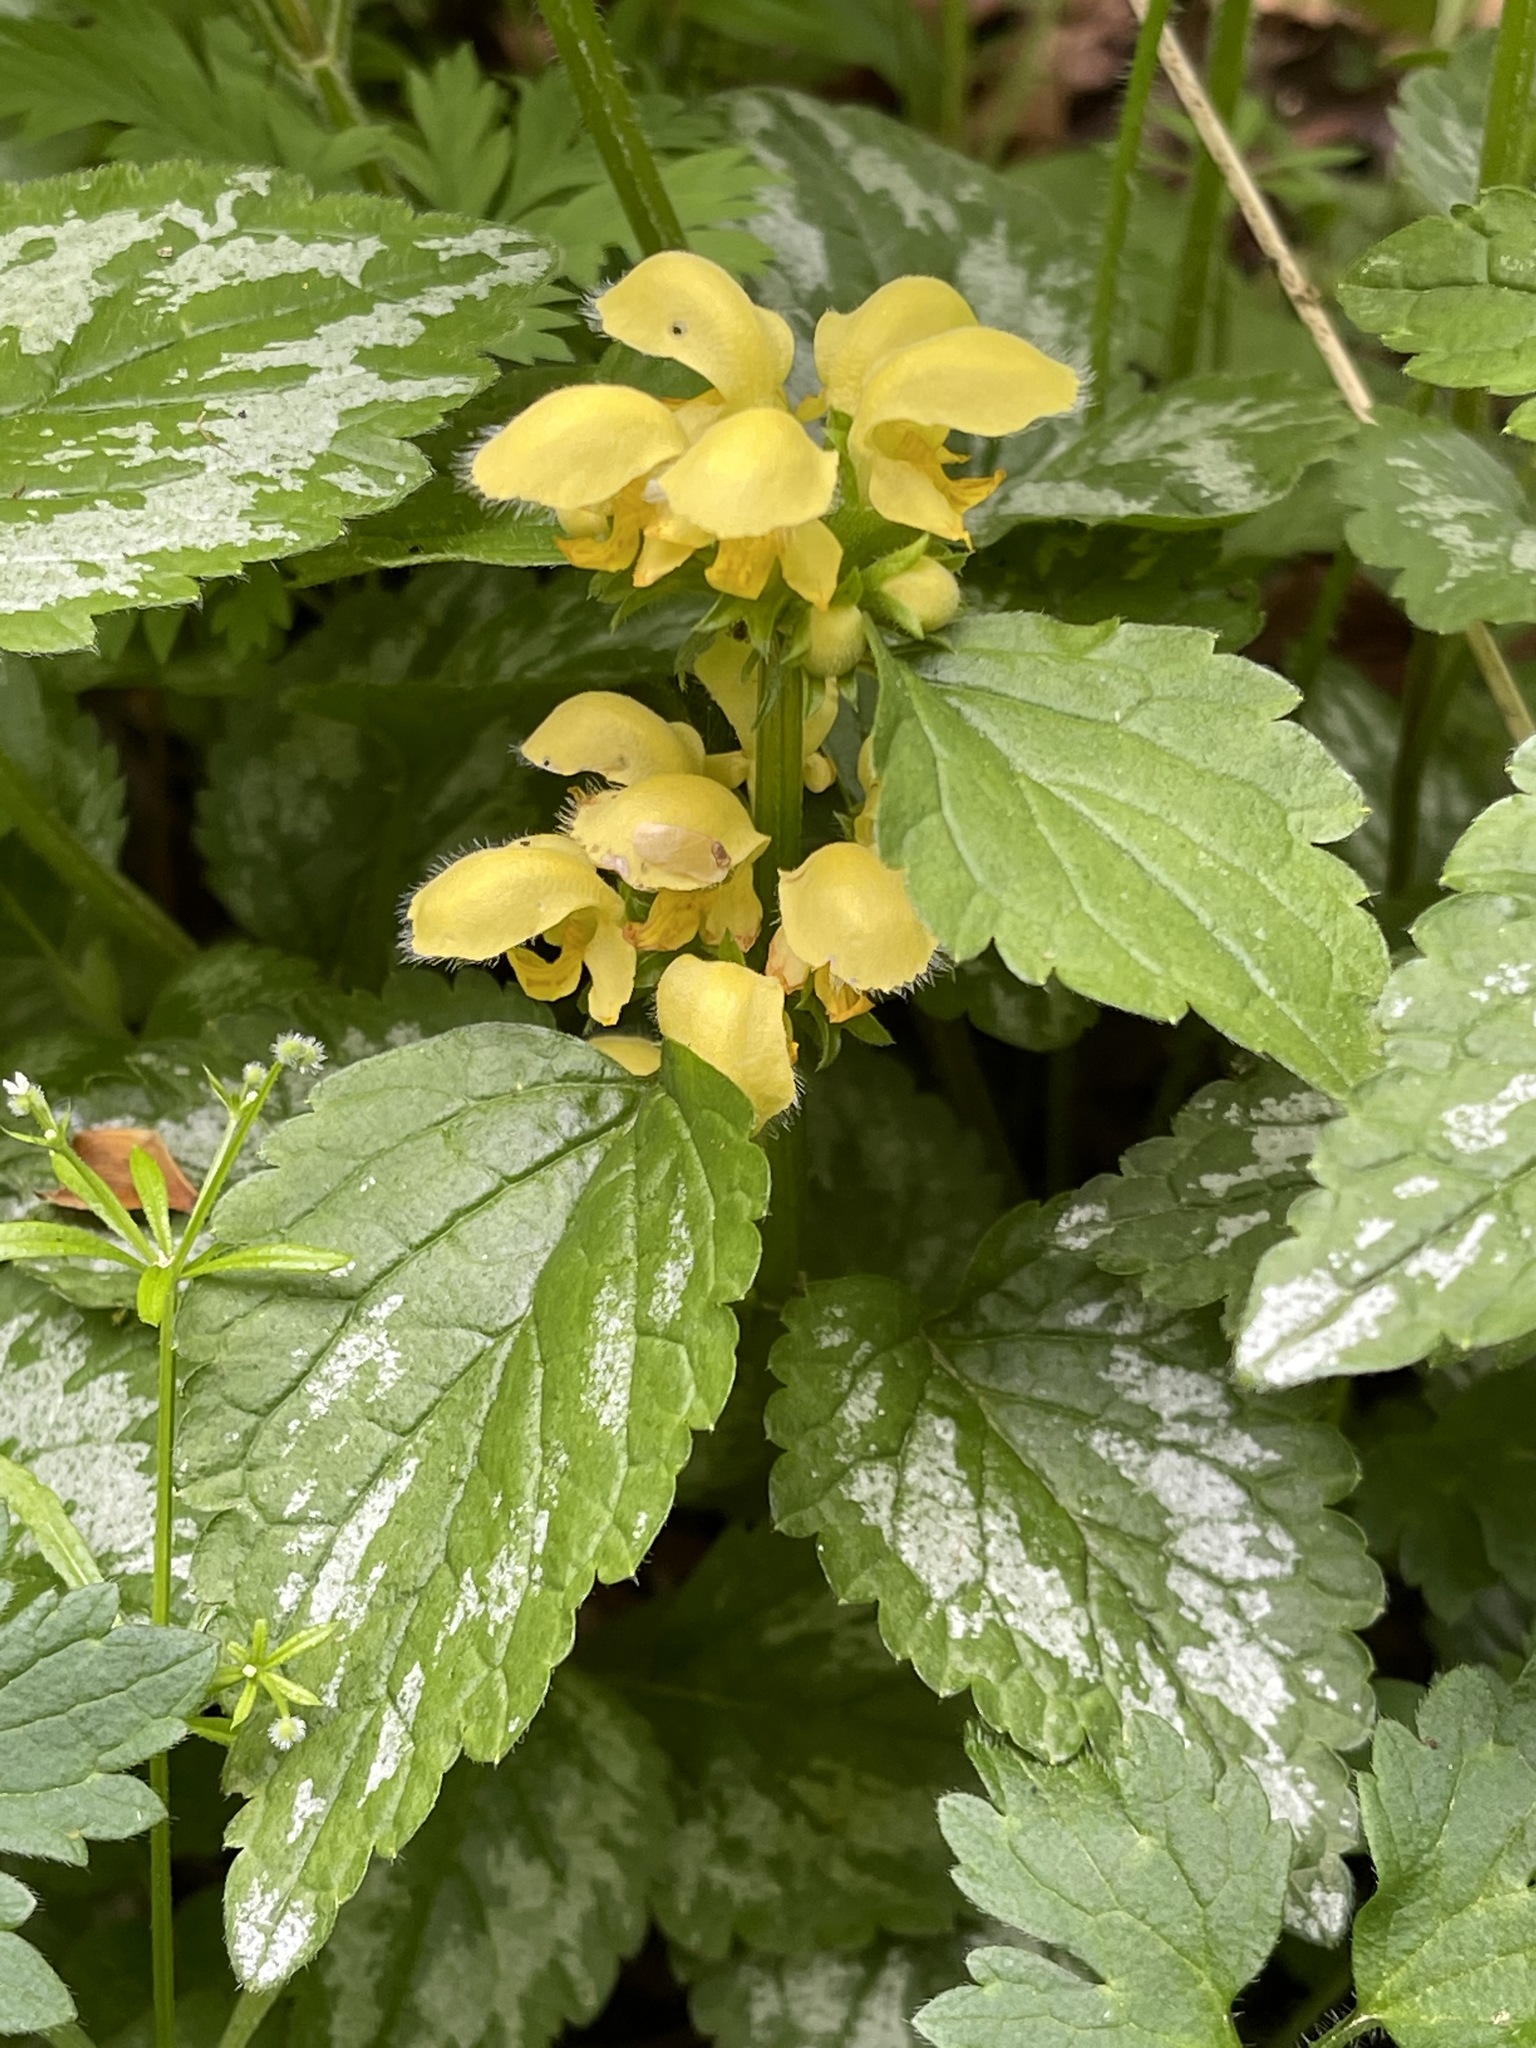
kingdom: Plantae
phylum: Tracheophyta
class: Magnoliopsida
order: Lamiales
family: Lamiaceae
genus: Lamium
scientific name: Lamium galeobdolon
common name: Yellow archangel
